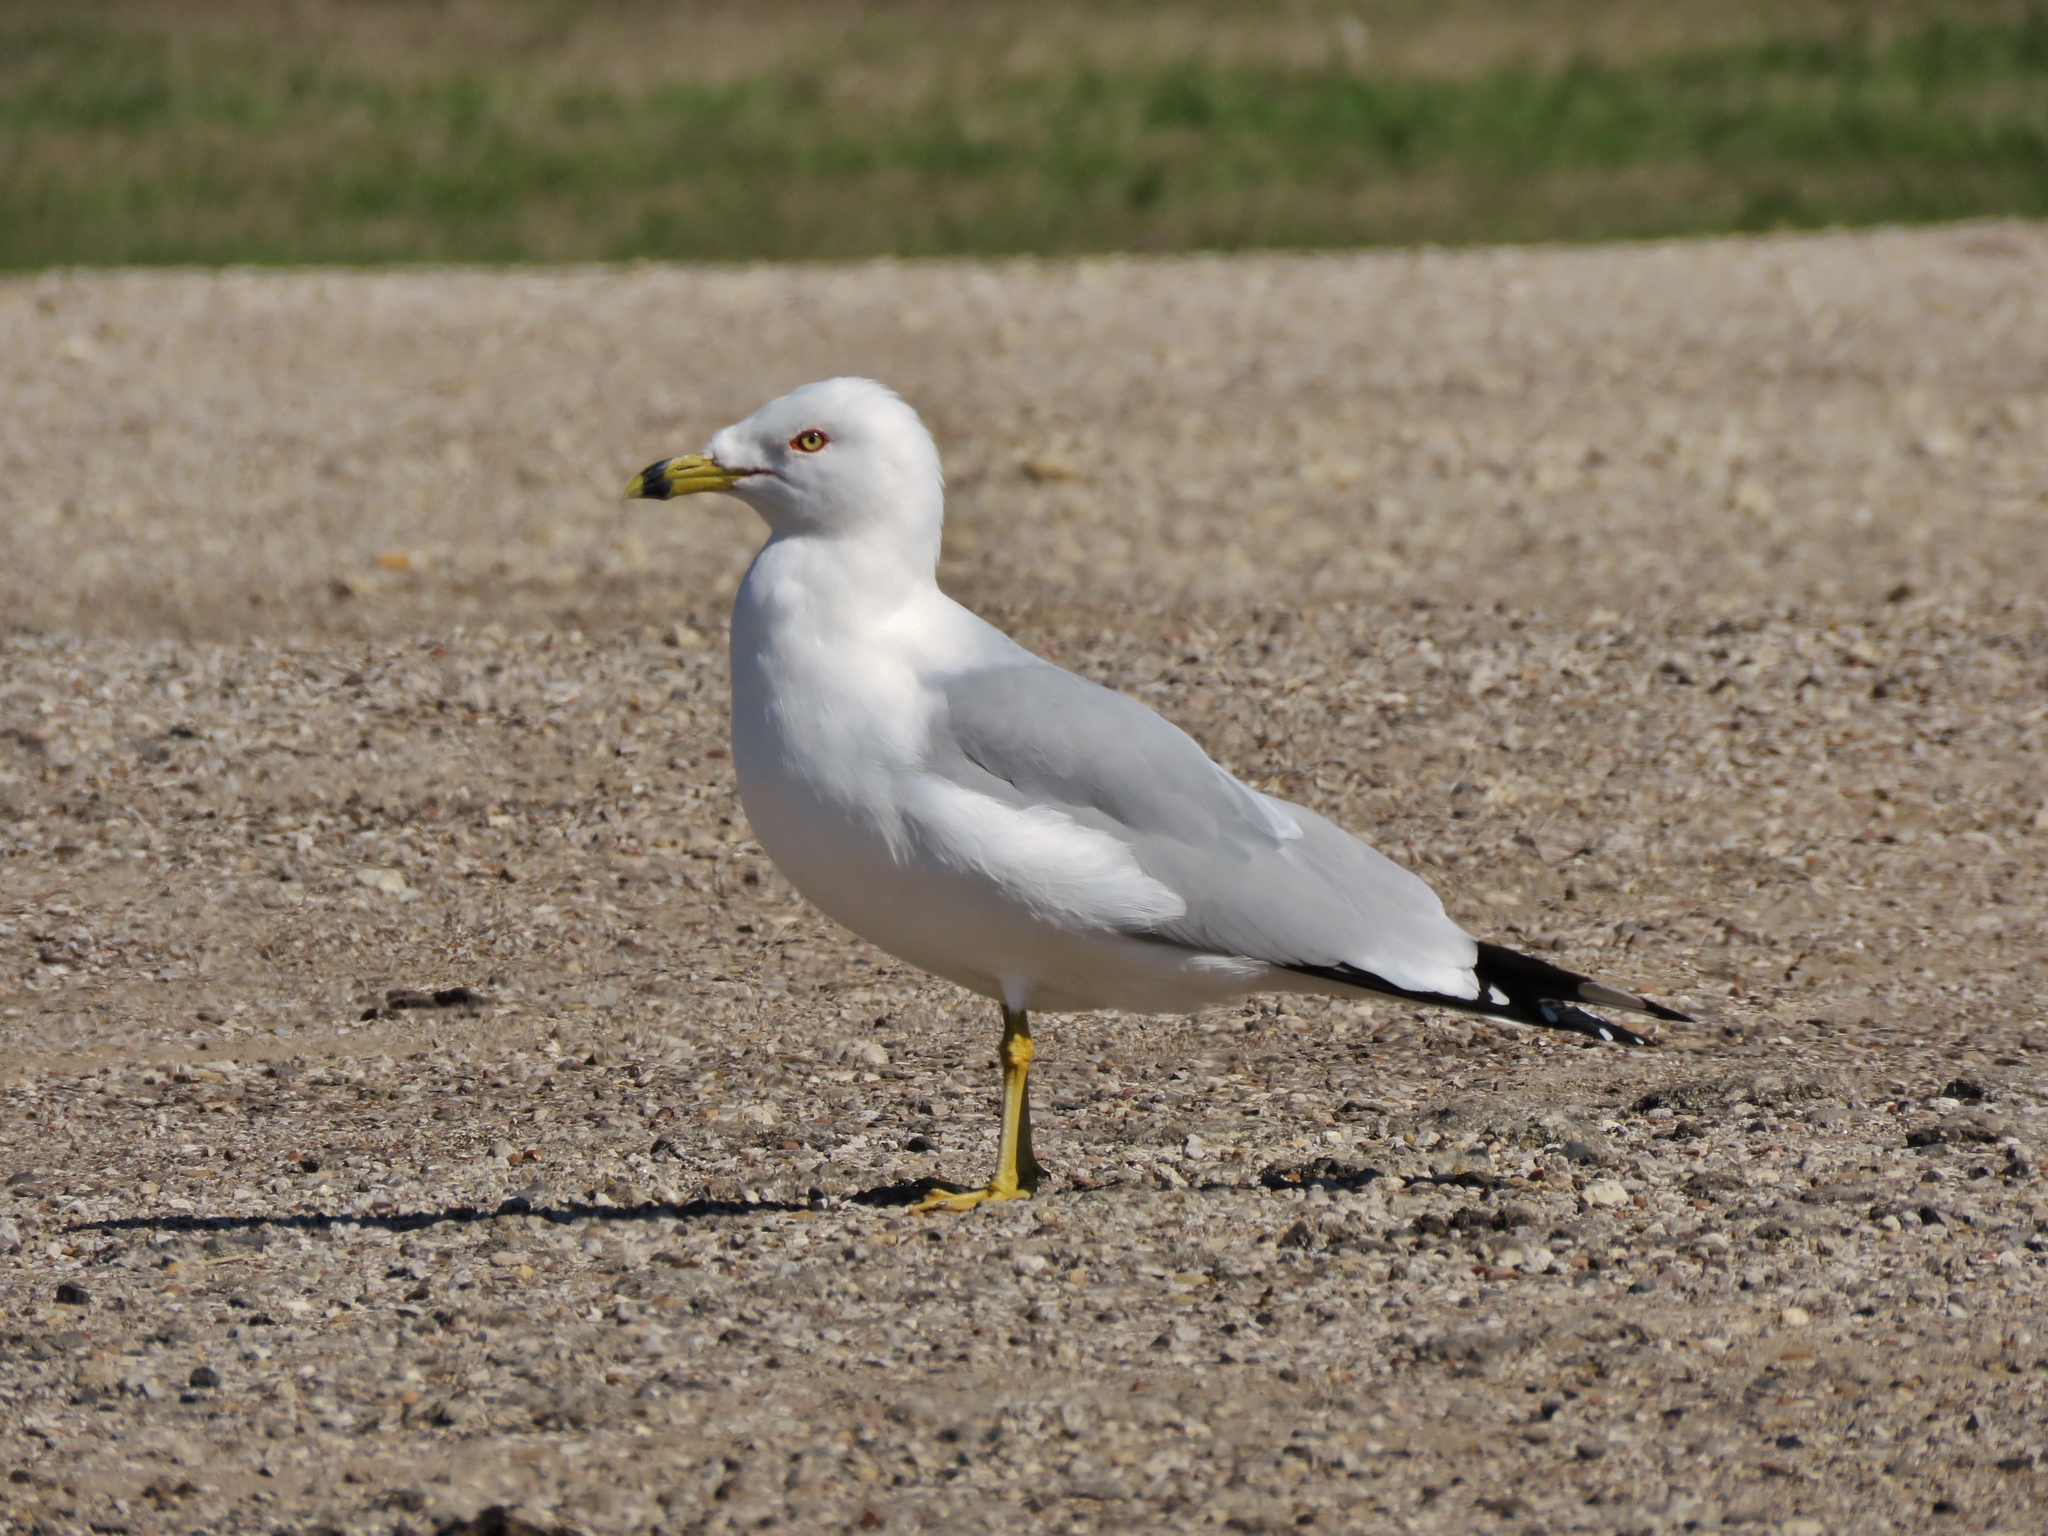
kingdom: Animalia
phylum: Chordata
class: Aves
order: Charadriiformes
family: Laridae
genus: Larus
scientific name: Larus delawarensis
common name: Ring-billed gull
